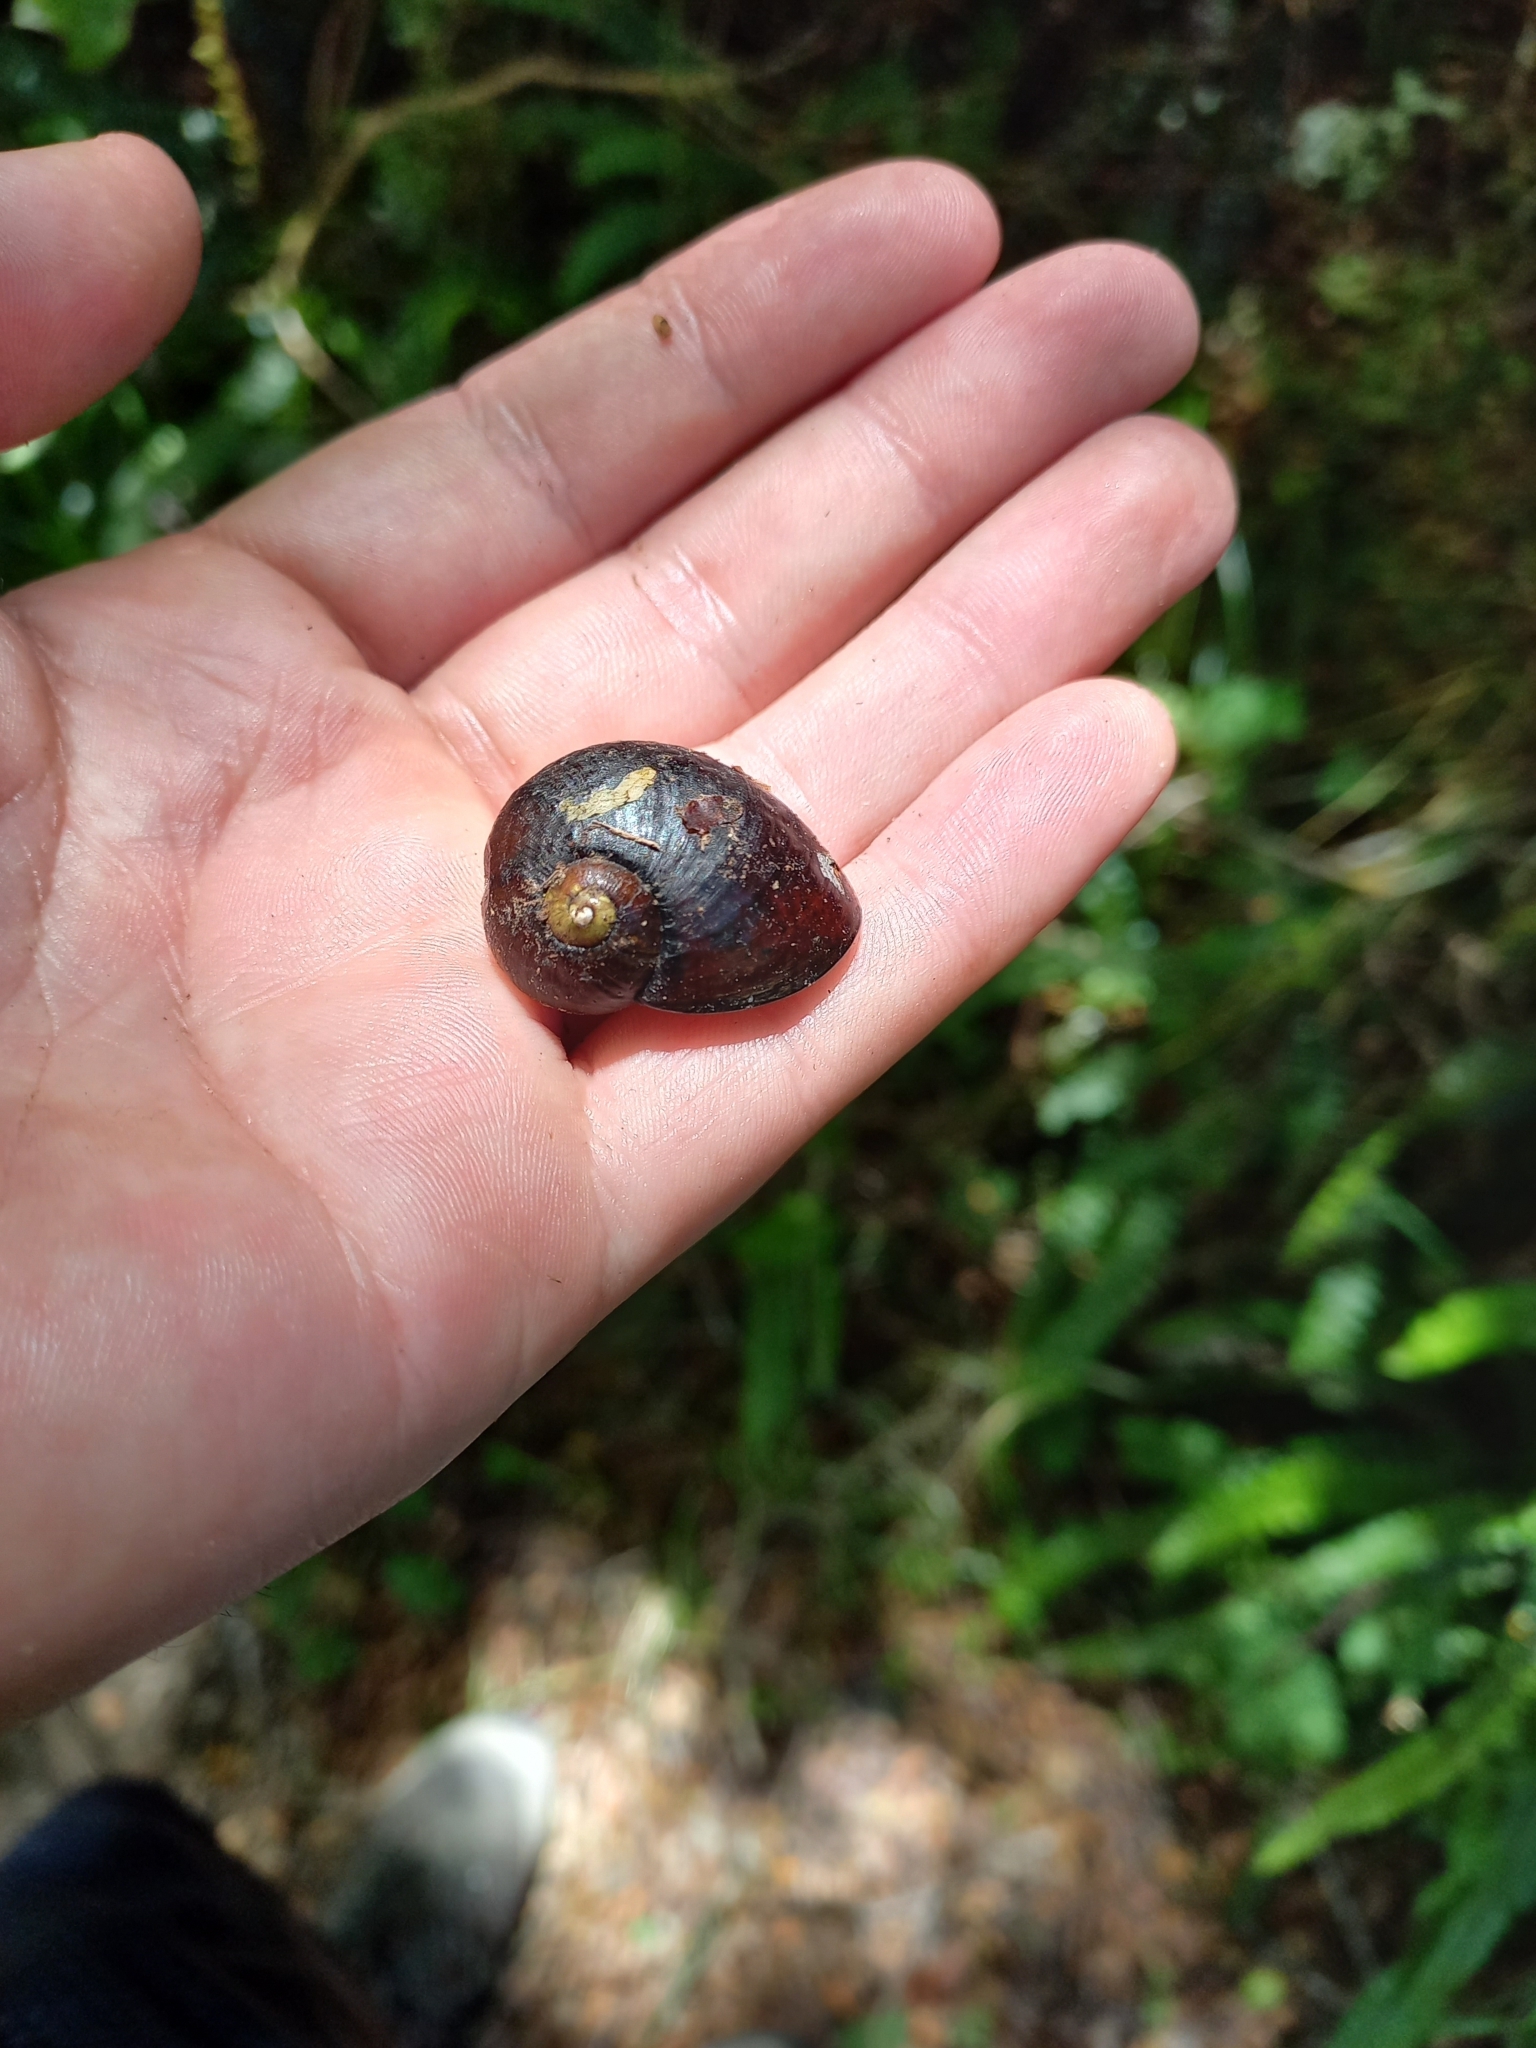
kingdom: Animalia
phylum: Mollusca
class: Gastropoda
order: Stylommatophora
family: Rhytididae
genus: Wainuia
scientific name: Wainuia urnula
